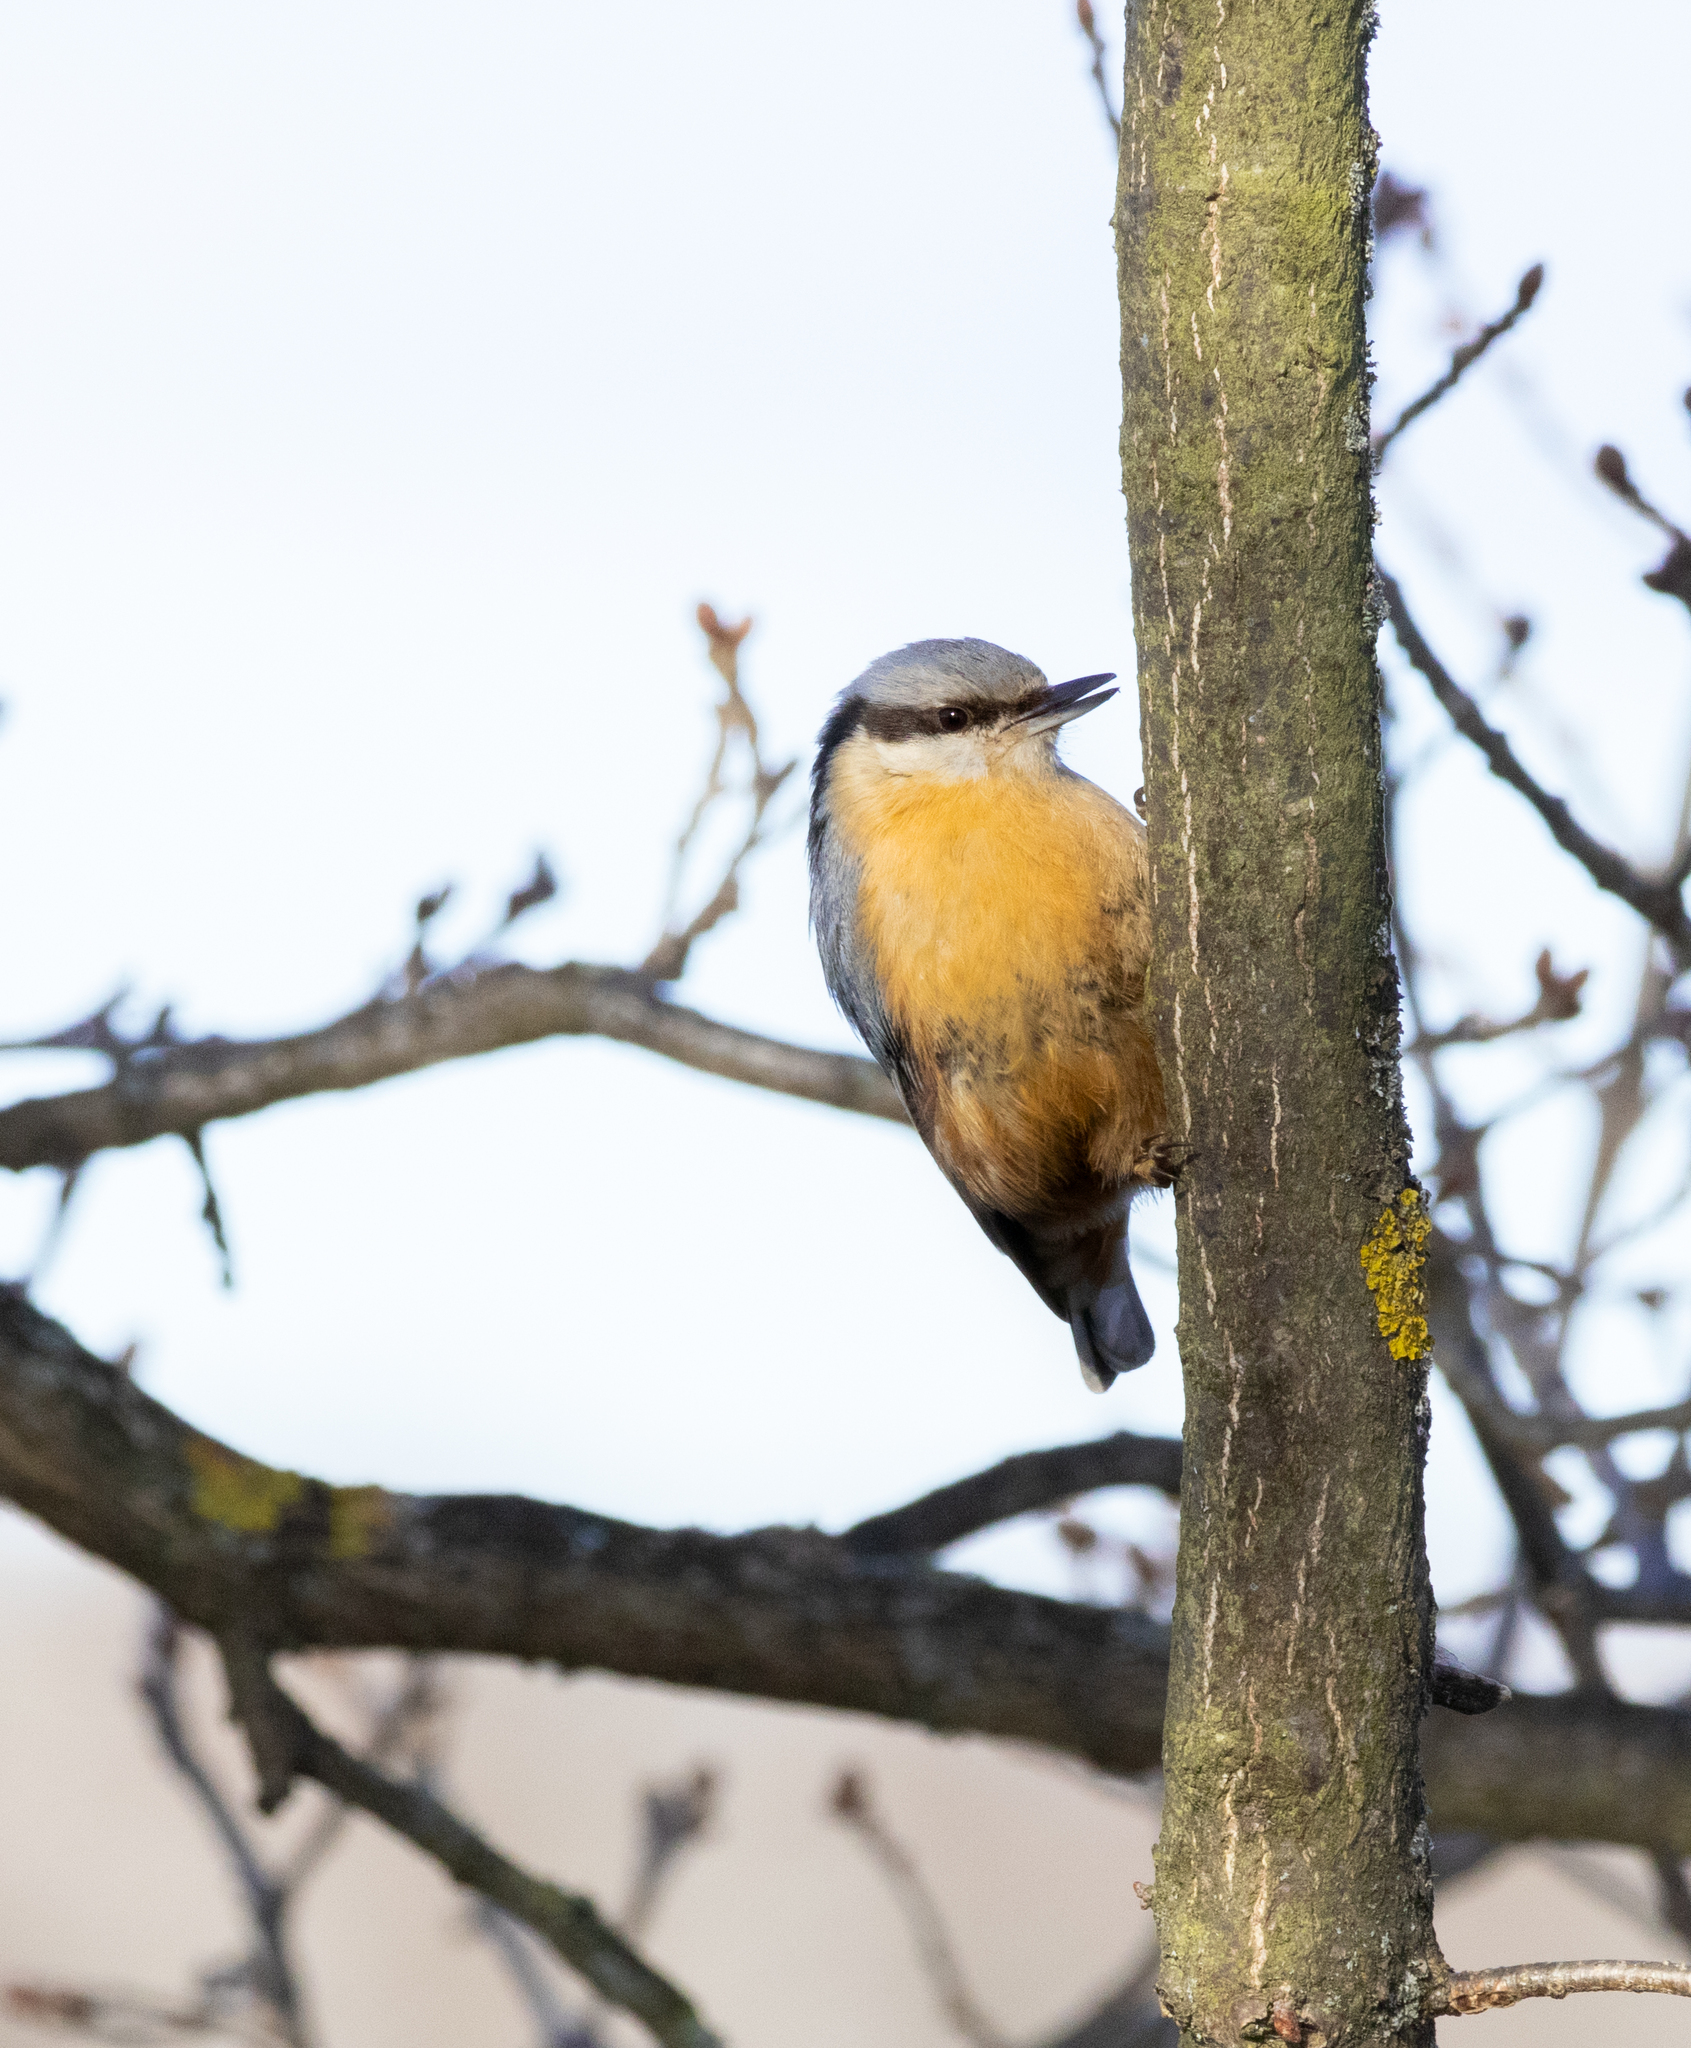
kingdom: Animalia
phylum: Chordata
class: Aves
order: Passeriformes
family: Sittidae
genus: Sitta
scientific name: Sitta europaea
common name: Eurasian nuthatch
